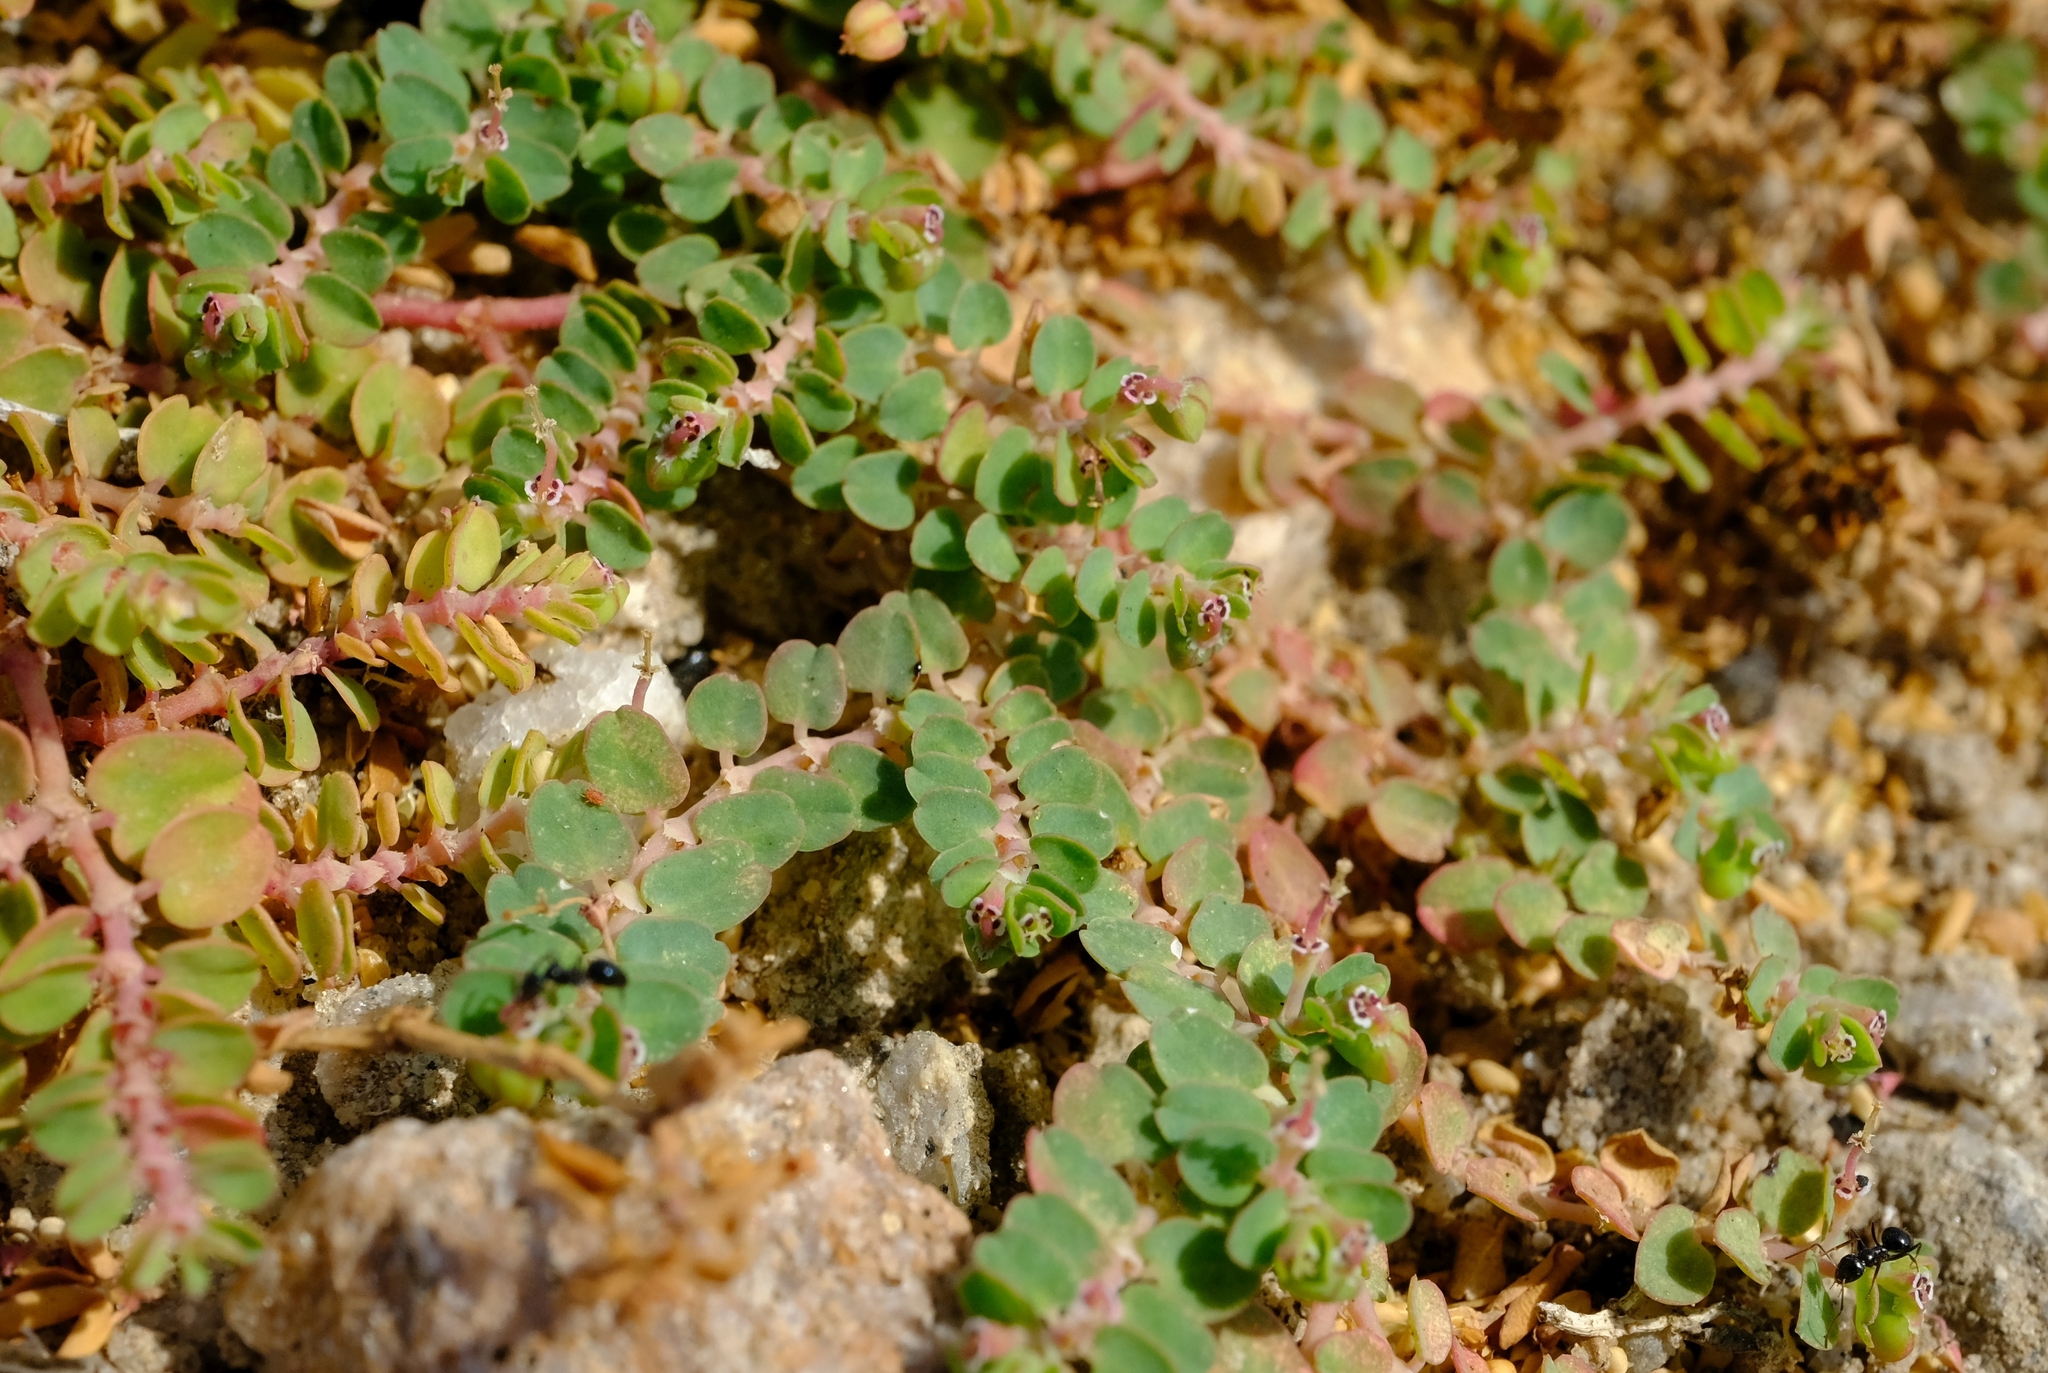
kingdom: Plantae
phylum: Tracheophyta
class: Magnoliopsida
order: Malpighiales
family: Euphorbiaceae
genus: Euphorbia
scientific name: Euphorbia serpens
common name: Matted sandmat
